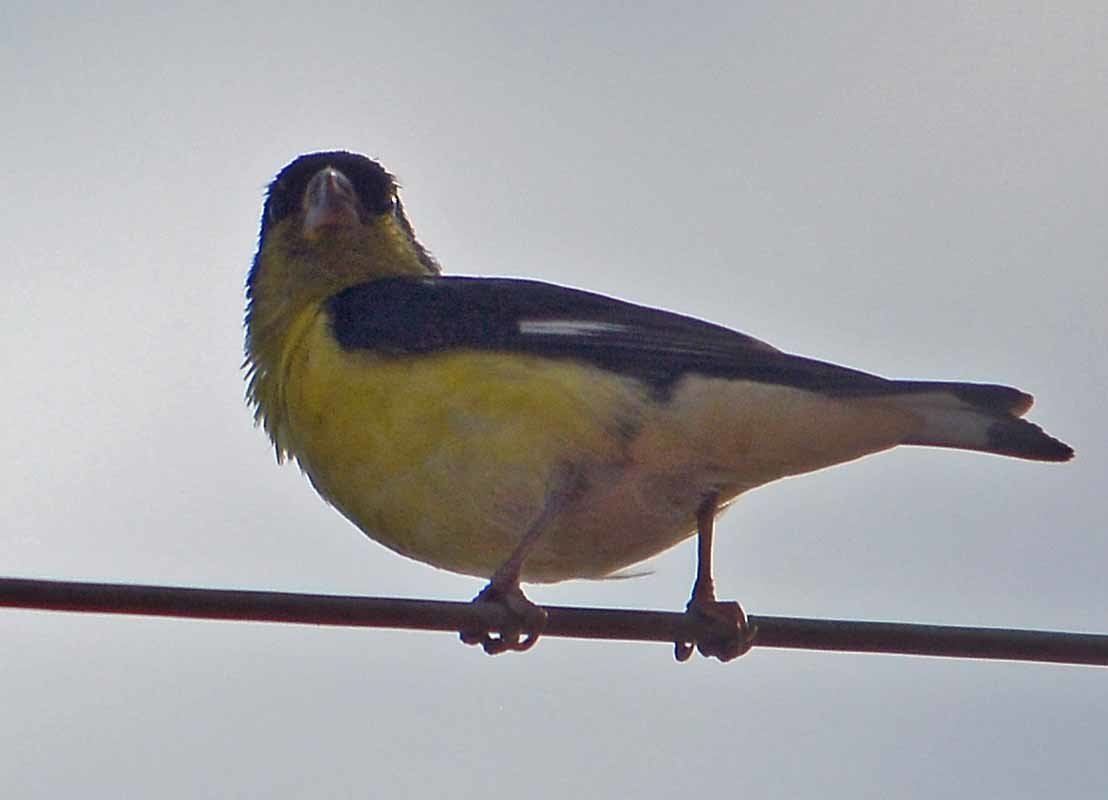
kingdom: Animalia
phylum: Chordata
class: Aves
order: Passeriformes
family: Fringillidae
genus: Spinus
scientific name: Spinus psaltria
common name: Lesser goldfinch
